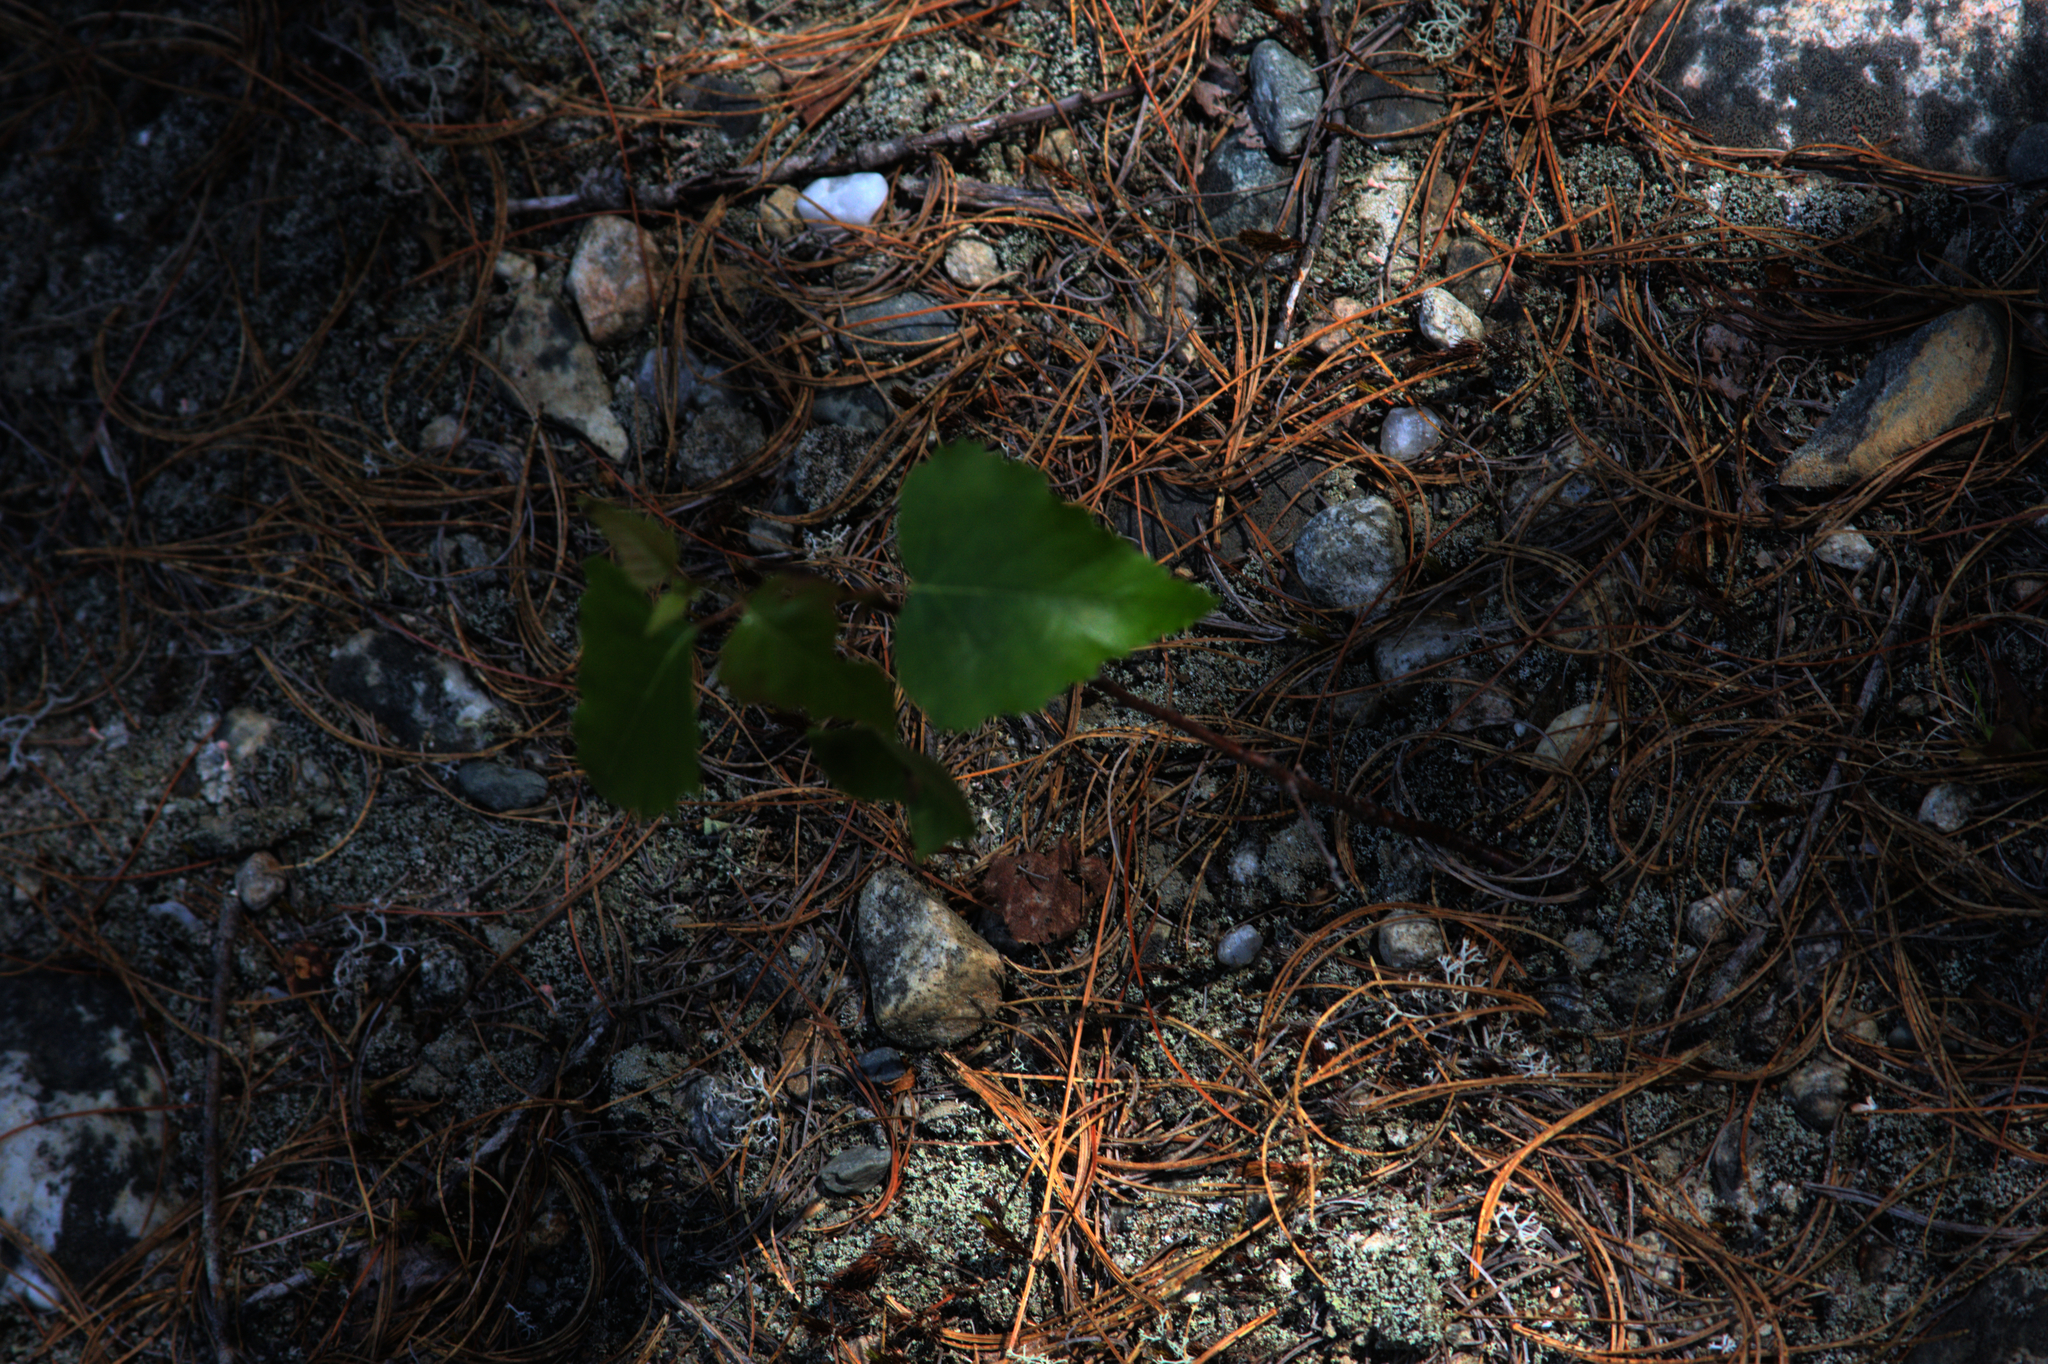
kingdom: Plantae
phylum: Tracheophyta
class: Magnoliopsida
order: Fagales
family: Betulaceae
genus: Betula
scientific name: Betula populifolia
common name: Fire birch
